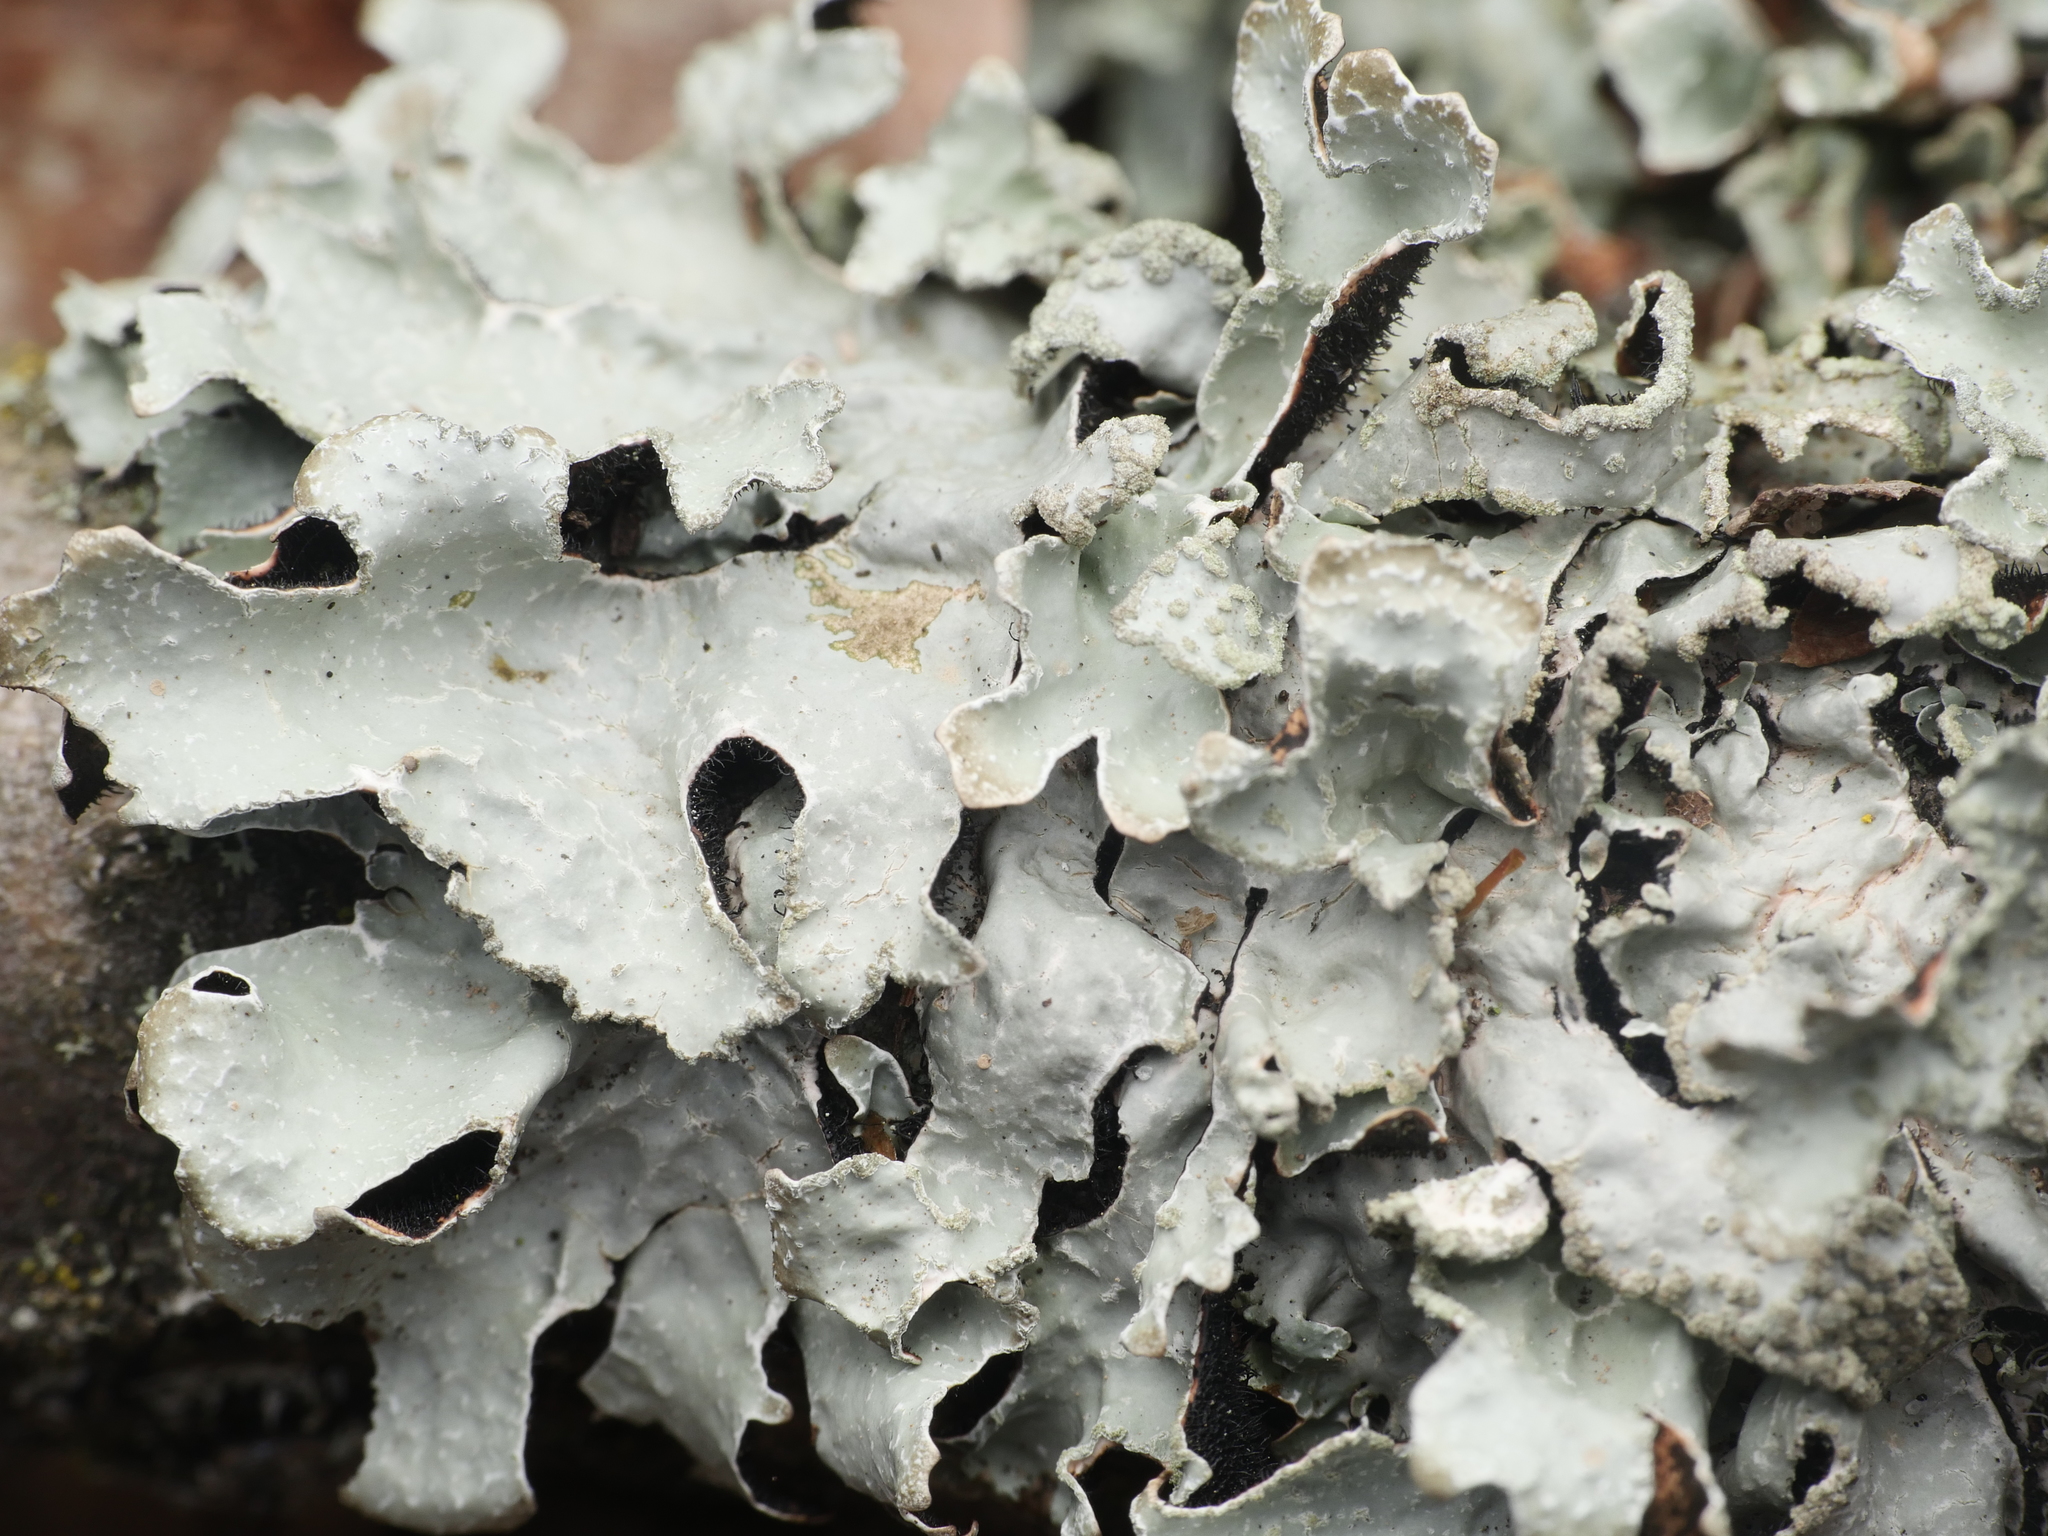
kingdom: Fungi
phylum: Ascomycota
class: Lecanoromycetes
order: Lecanorales
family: Parmeliaceae
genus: Parmelia
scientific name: Parmelia sulcata
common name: Netted shield lichen
